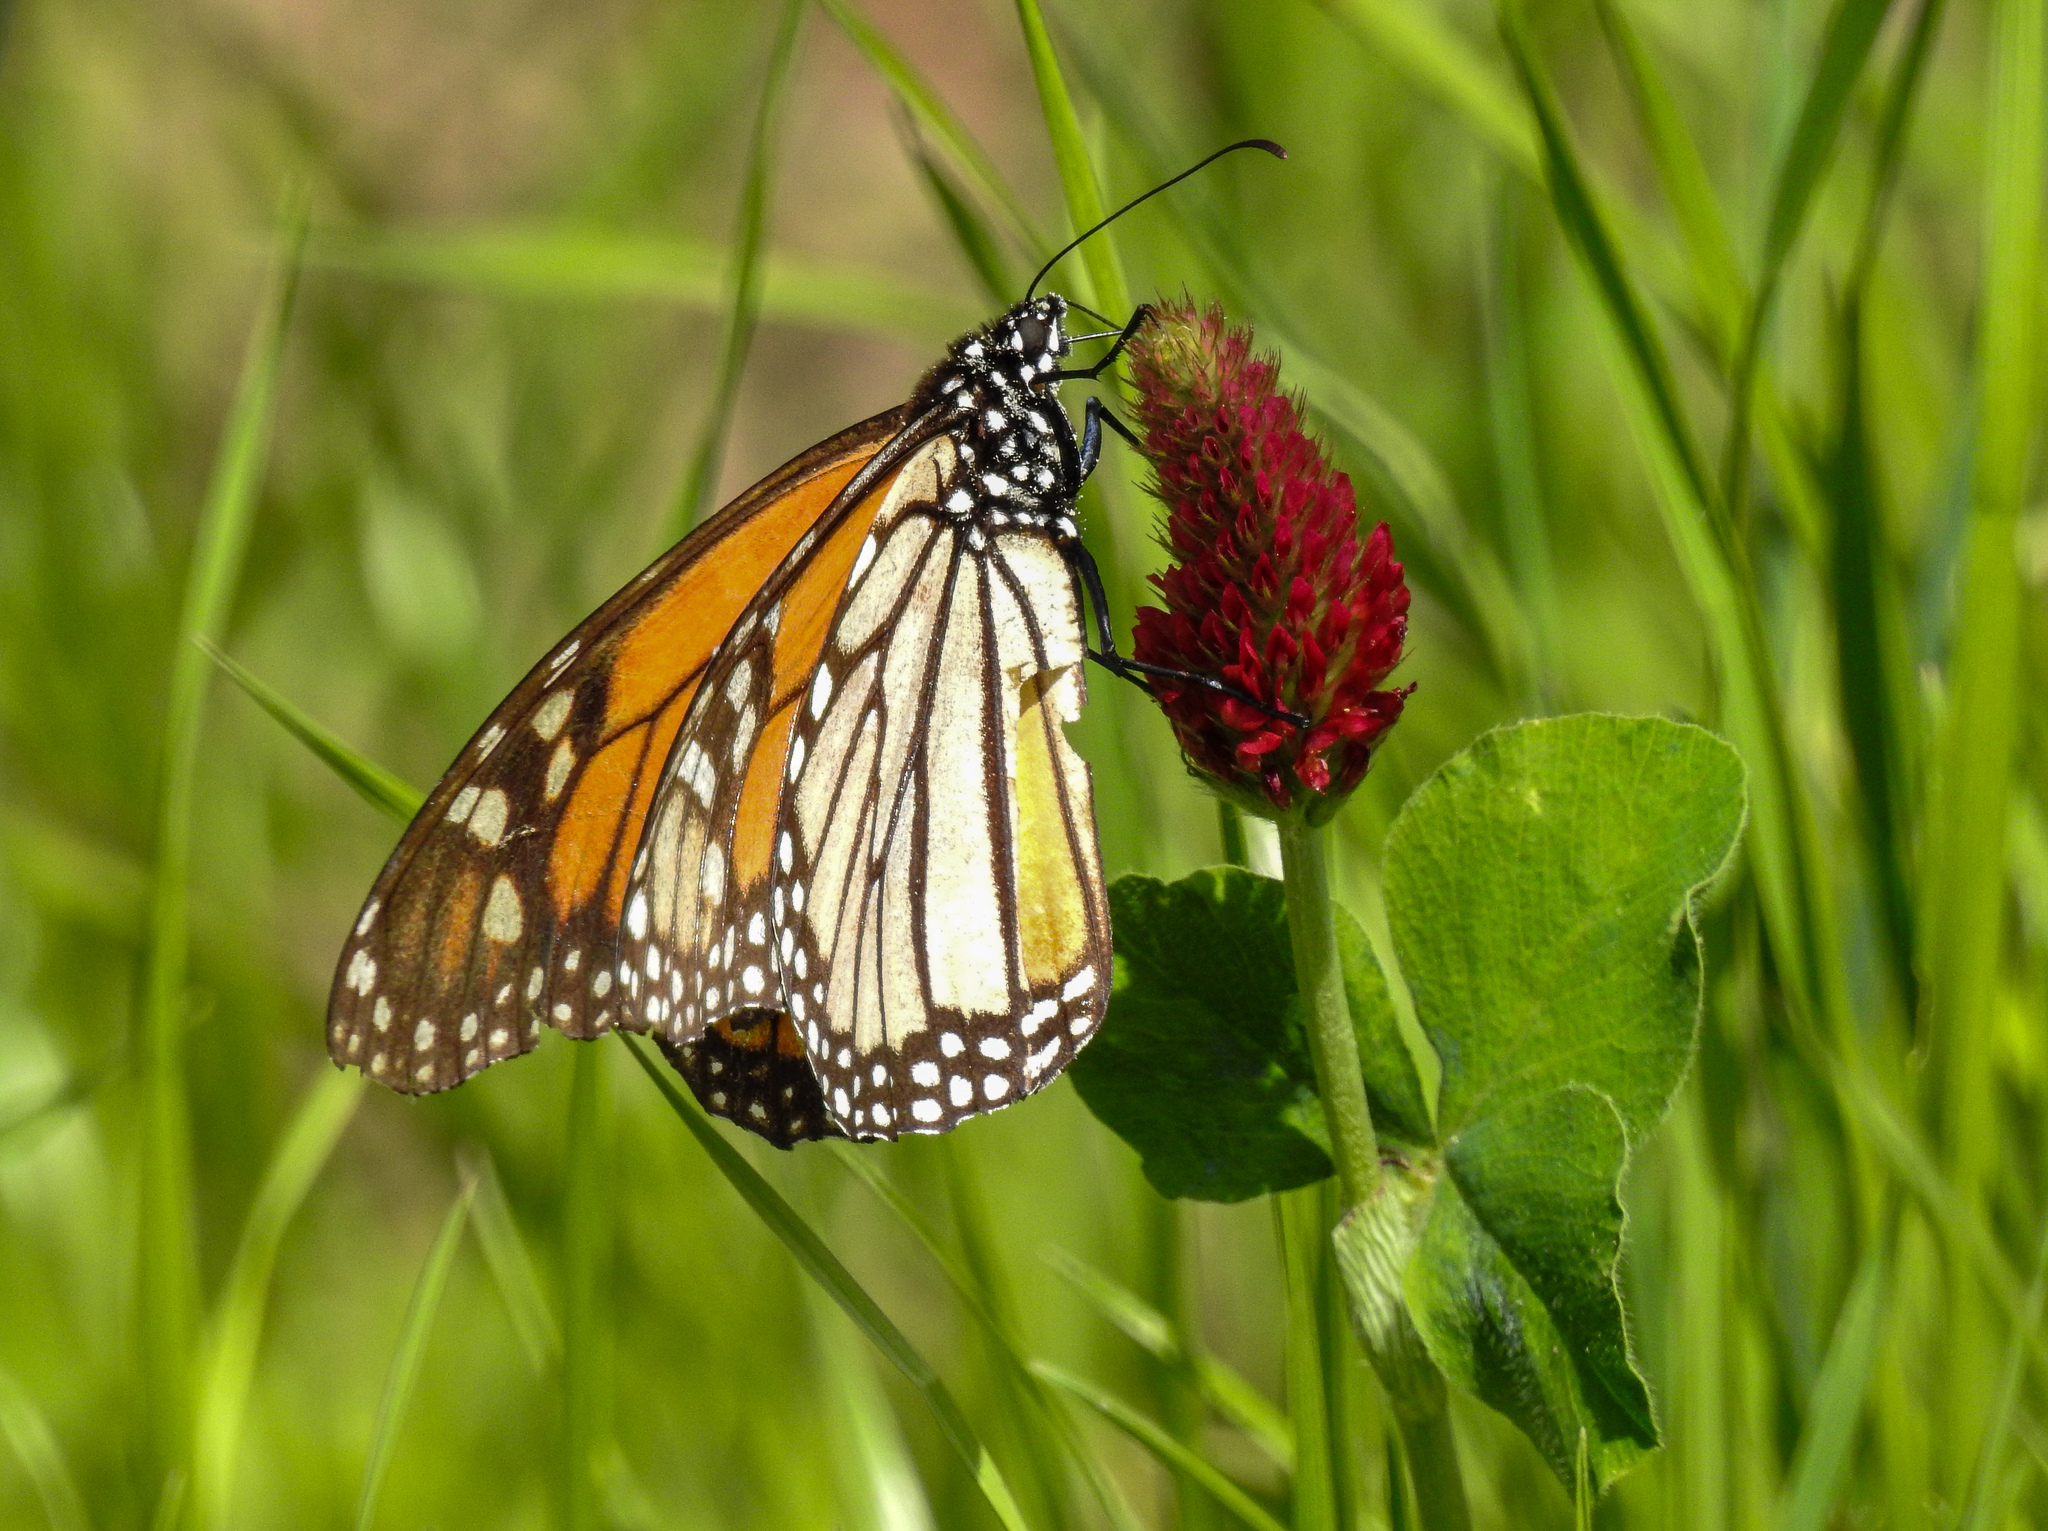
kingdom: Animalia
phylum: Arthropoda
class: Insecta
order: Lepidoptera
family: Nymphalidae
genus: Danaus
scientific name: Danaus plexippus
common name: Monarch
